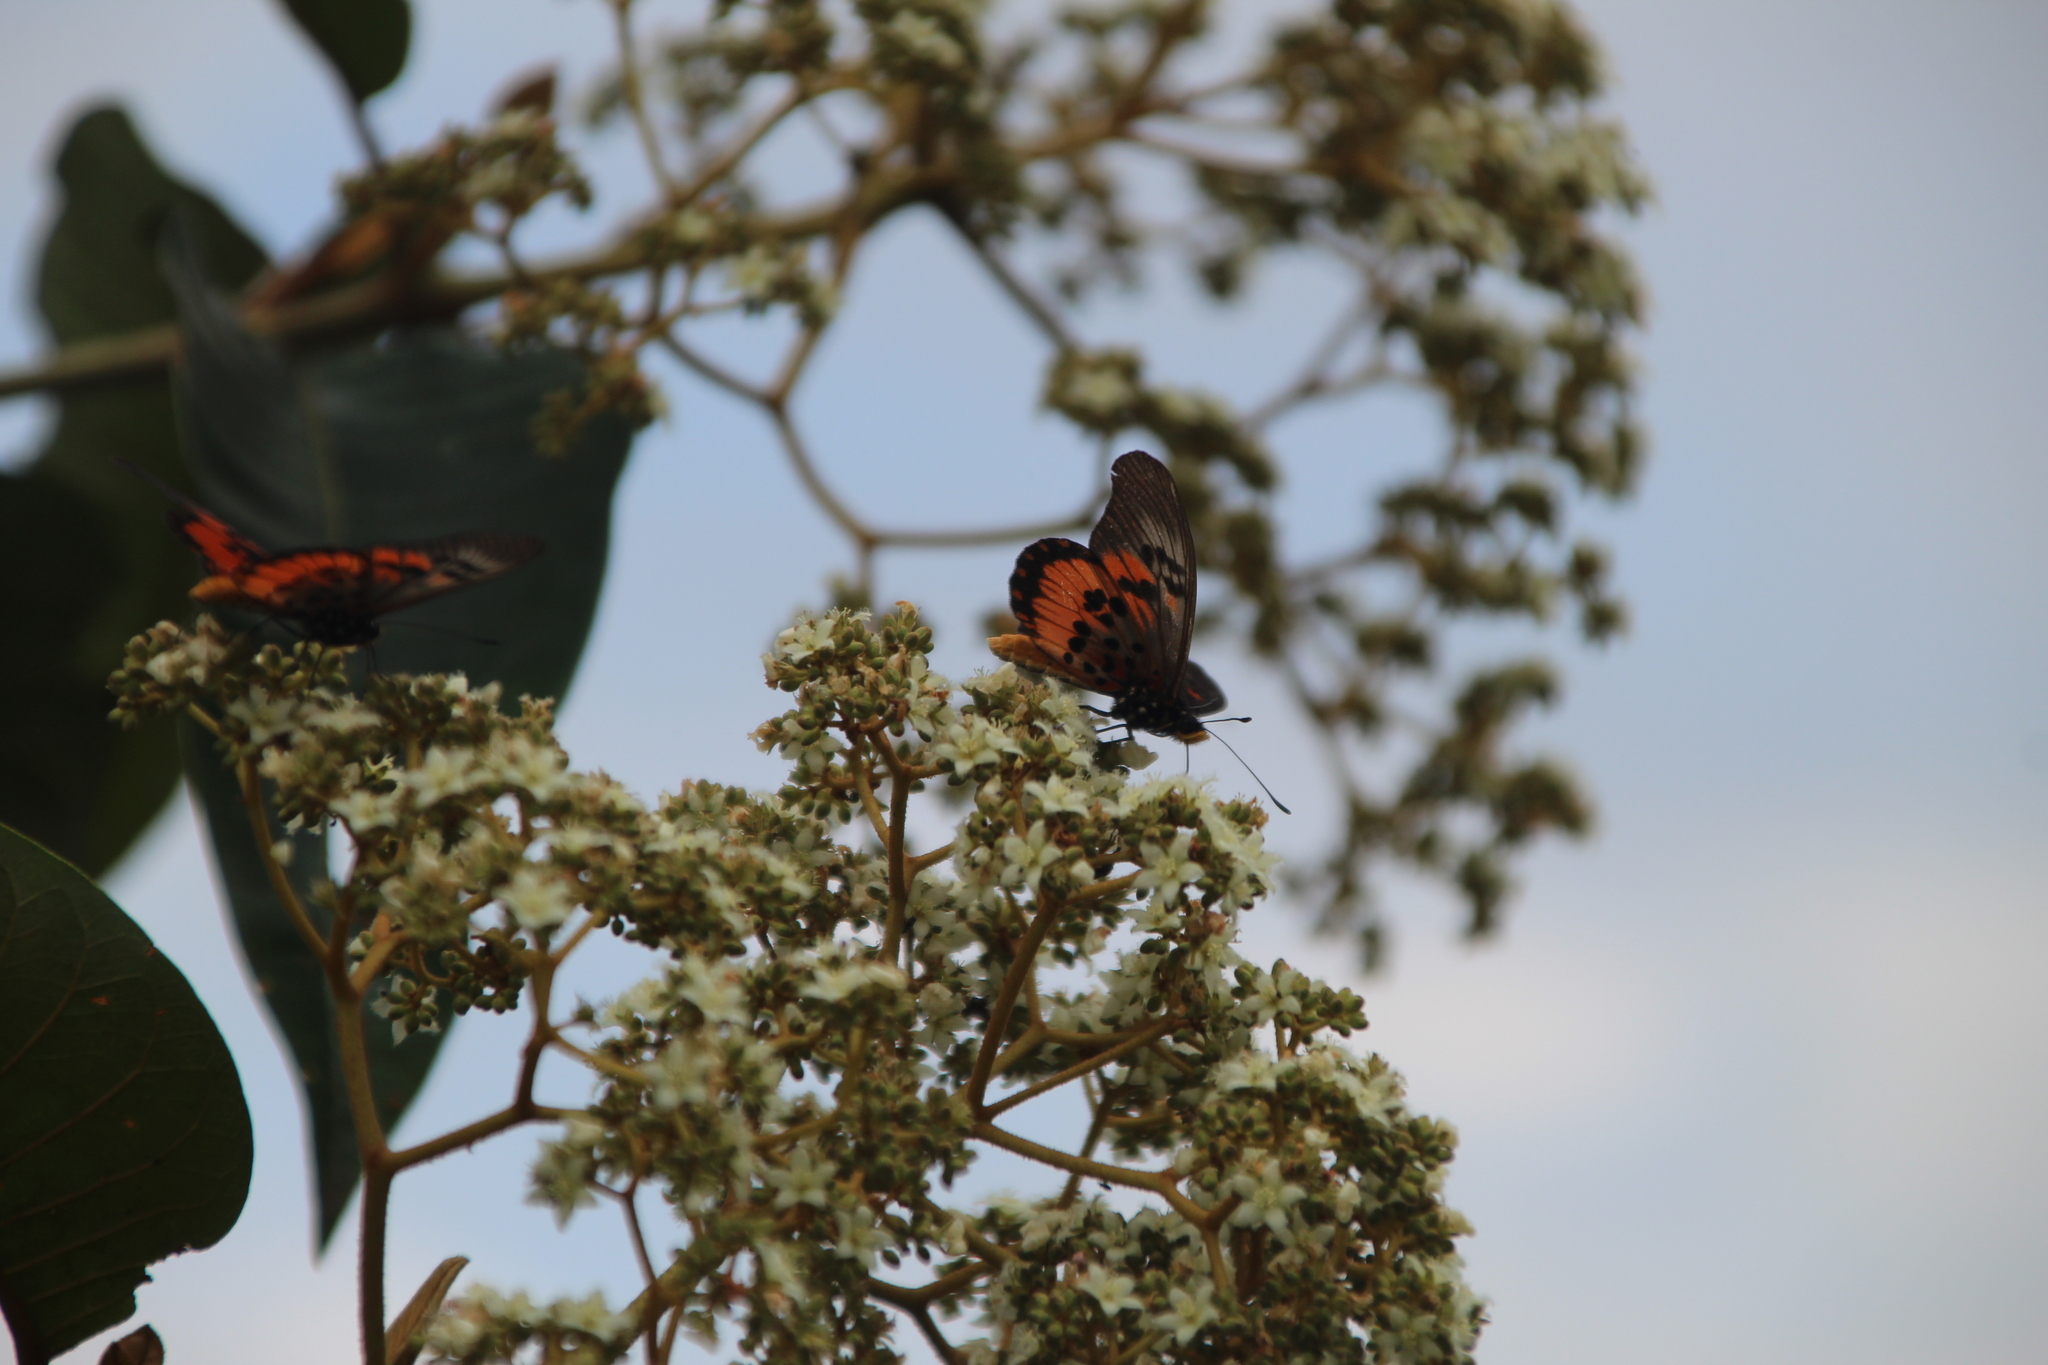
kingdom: Animalia
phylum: Arthropoda
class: Insecta
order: Lepidoptera
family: Nymphalidae
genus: Acraea
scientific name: Acraea
